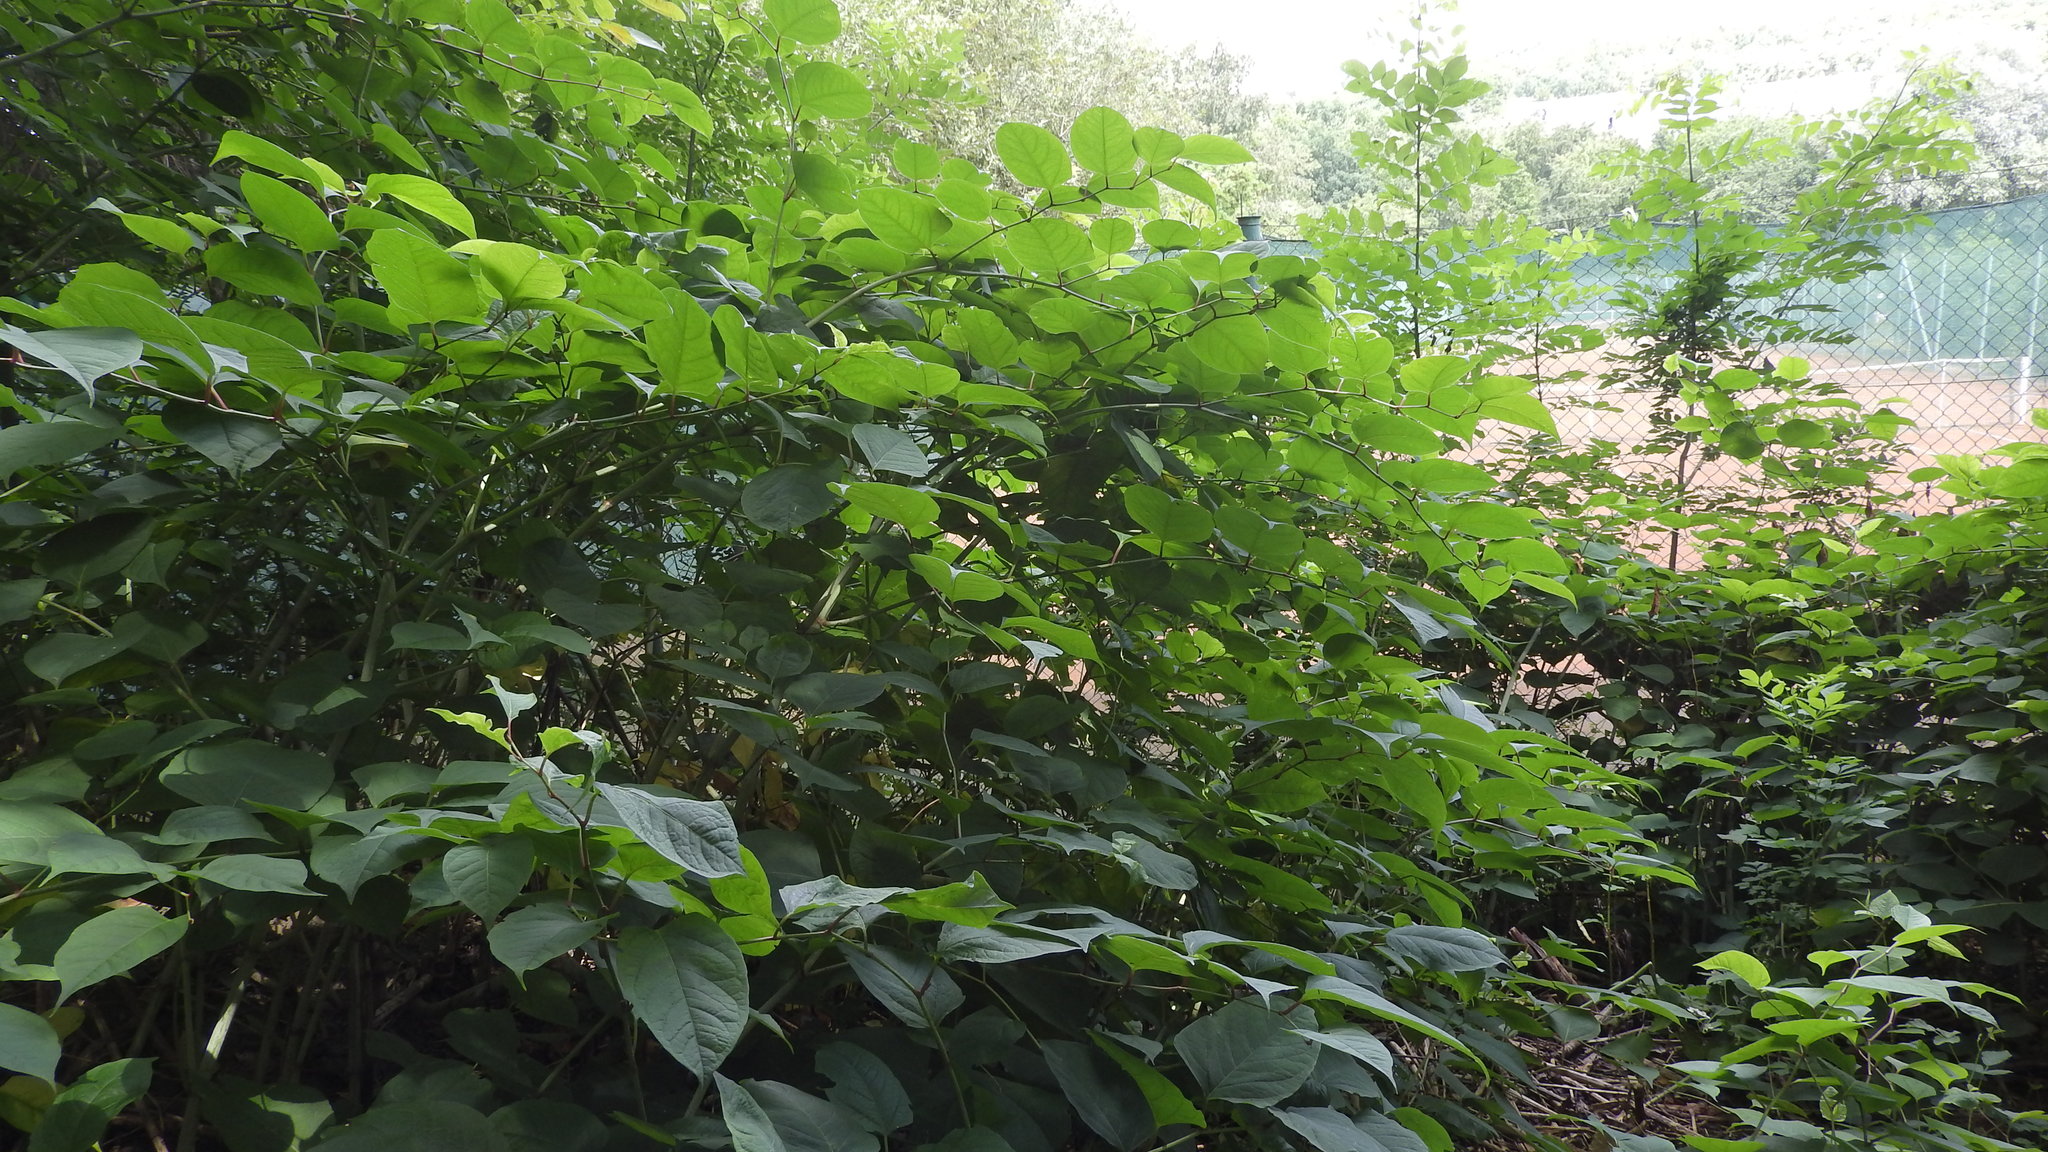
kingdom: Plantae
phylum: Tracheophyta
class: Magnoliopsida
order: Caryophyllales
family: Polygonaceae
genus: Reynoutria
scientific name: Reynoutria japonica
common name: Japanese knotweed
